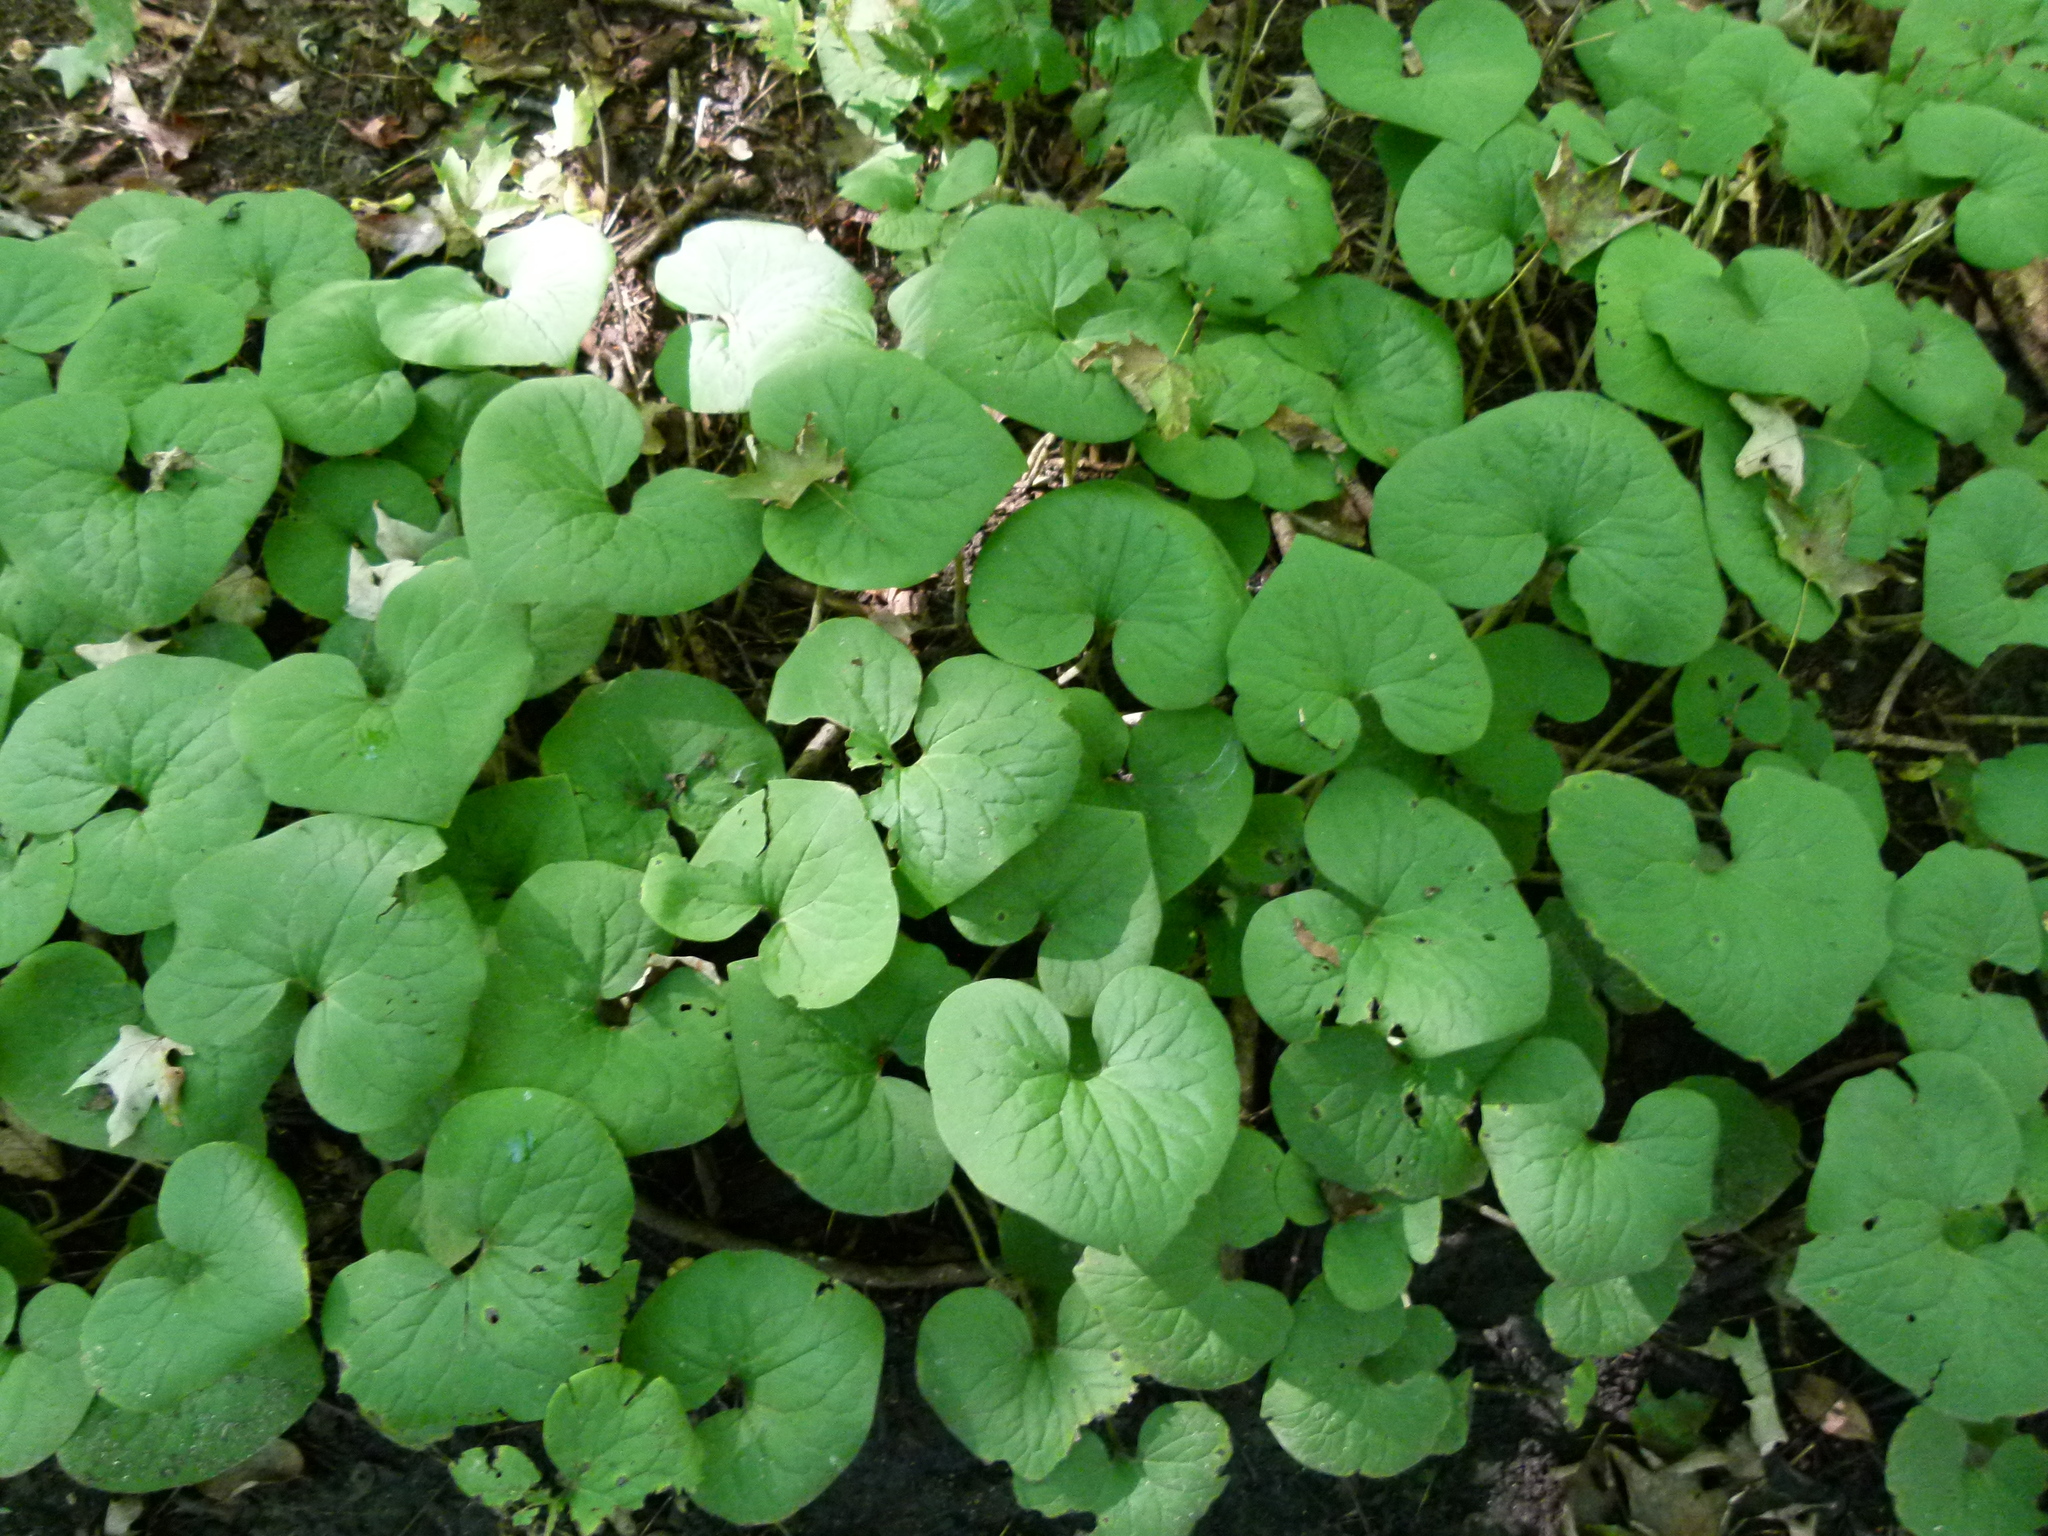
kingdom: Plantae
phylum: Tracheophyta
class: Magnoliopsida
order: Piperales
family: Aristolochiaceae
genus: Asarum
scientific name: Asarum canadense
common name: Wild ginger
